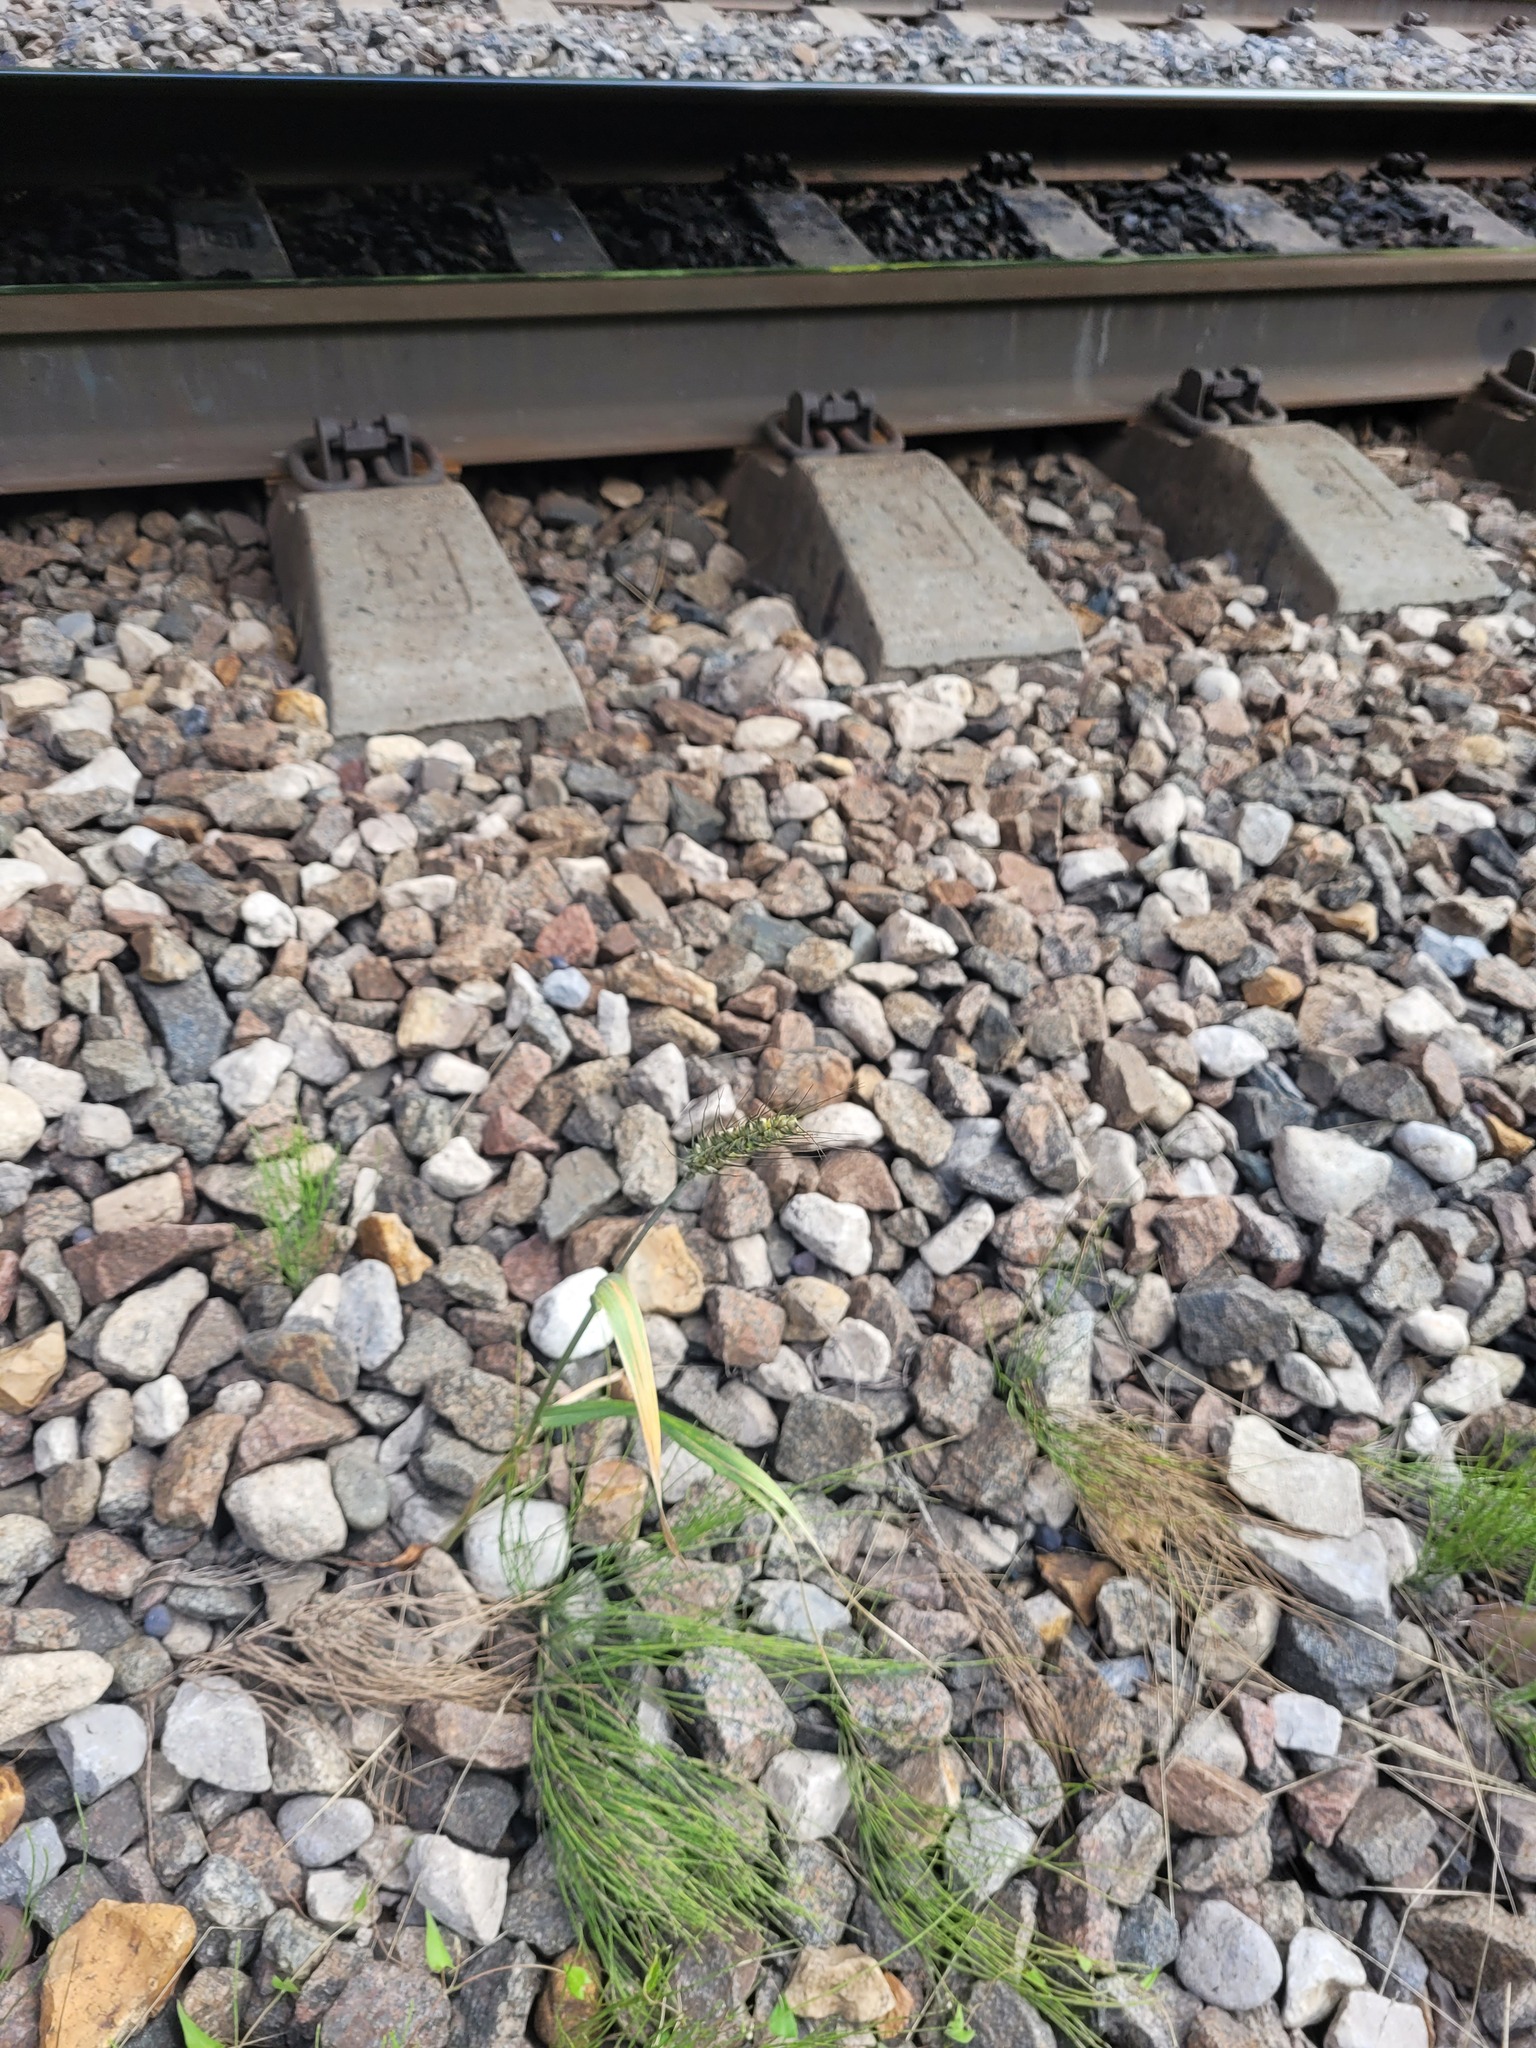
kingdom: Plantae
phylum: Tracheophyta
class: Liliopsida
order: Poales
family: Poaceae
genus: Triticum
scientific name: Triticum aestivum
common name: Common wheat
